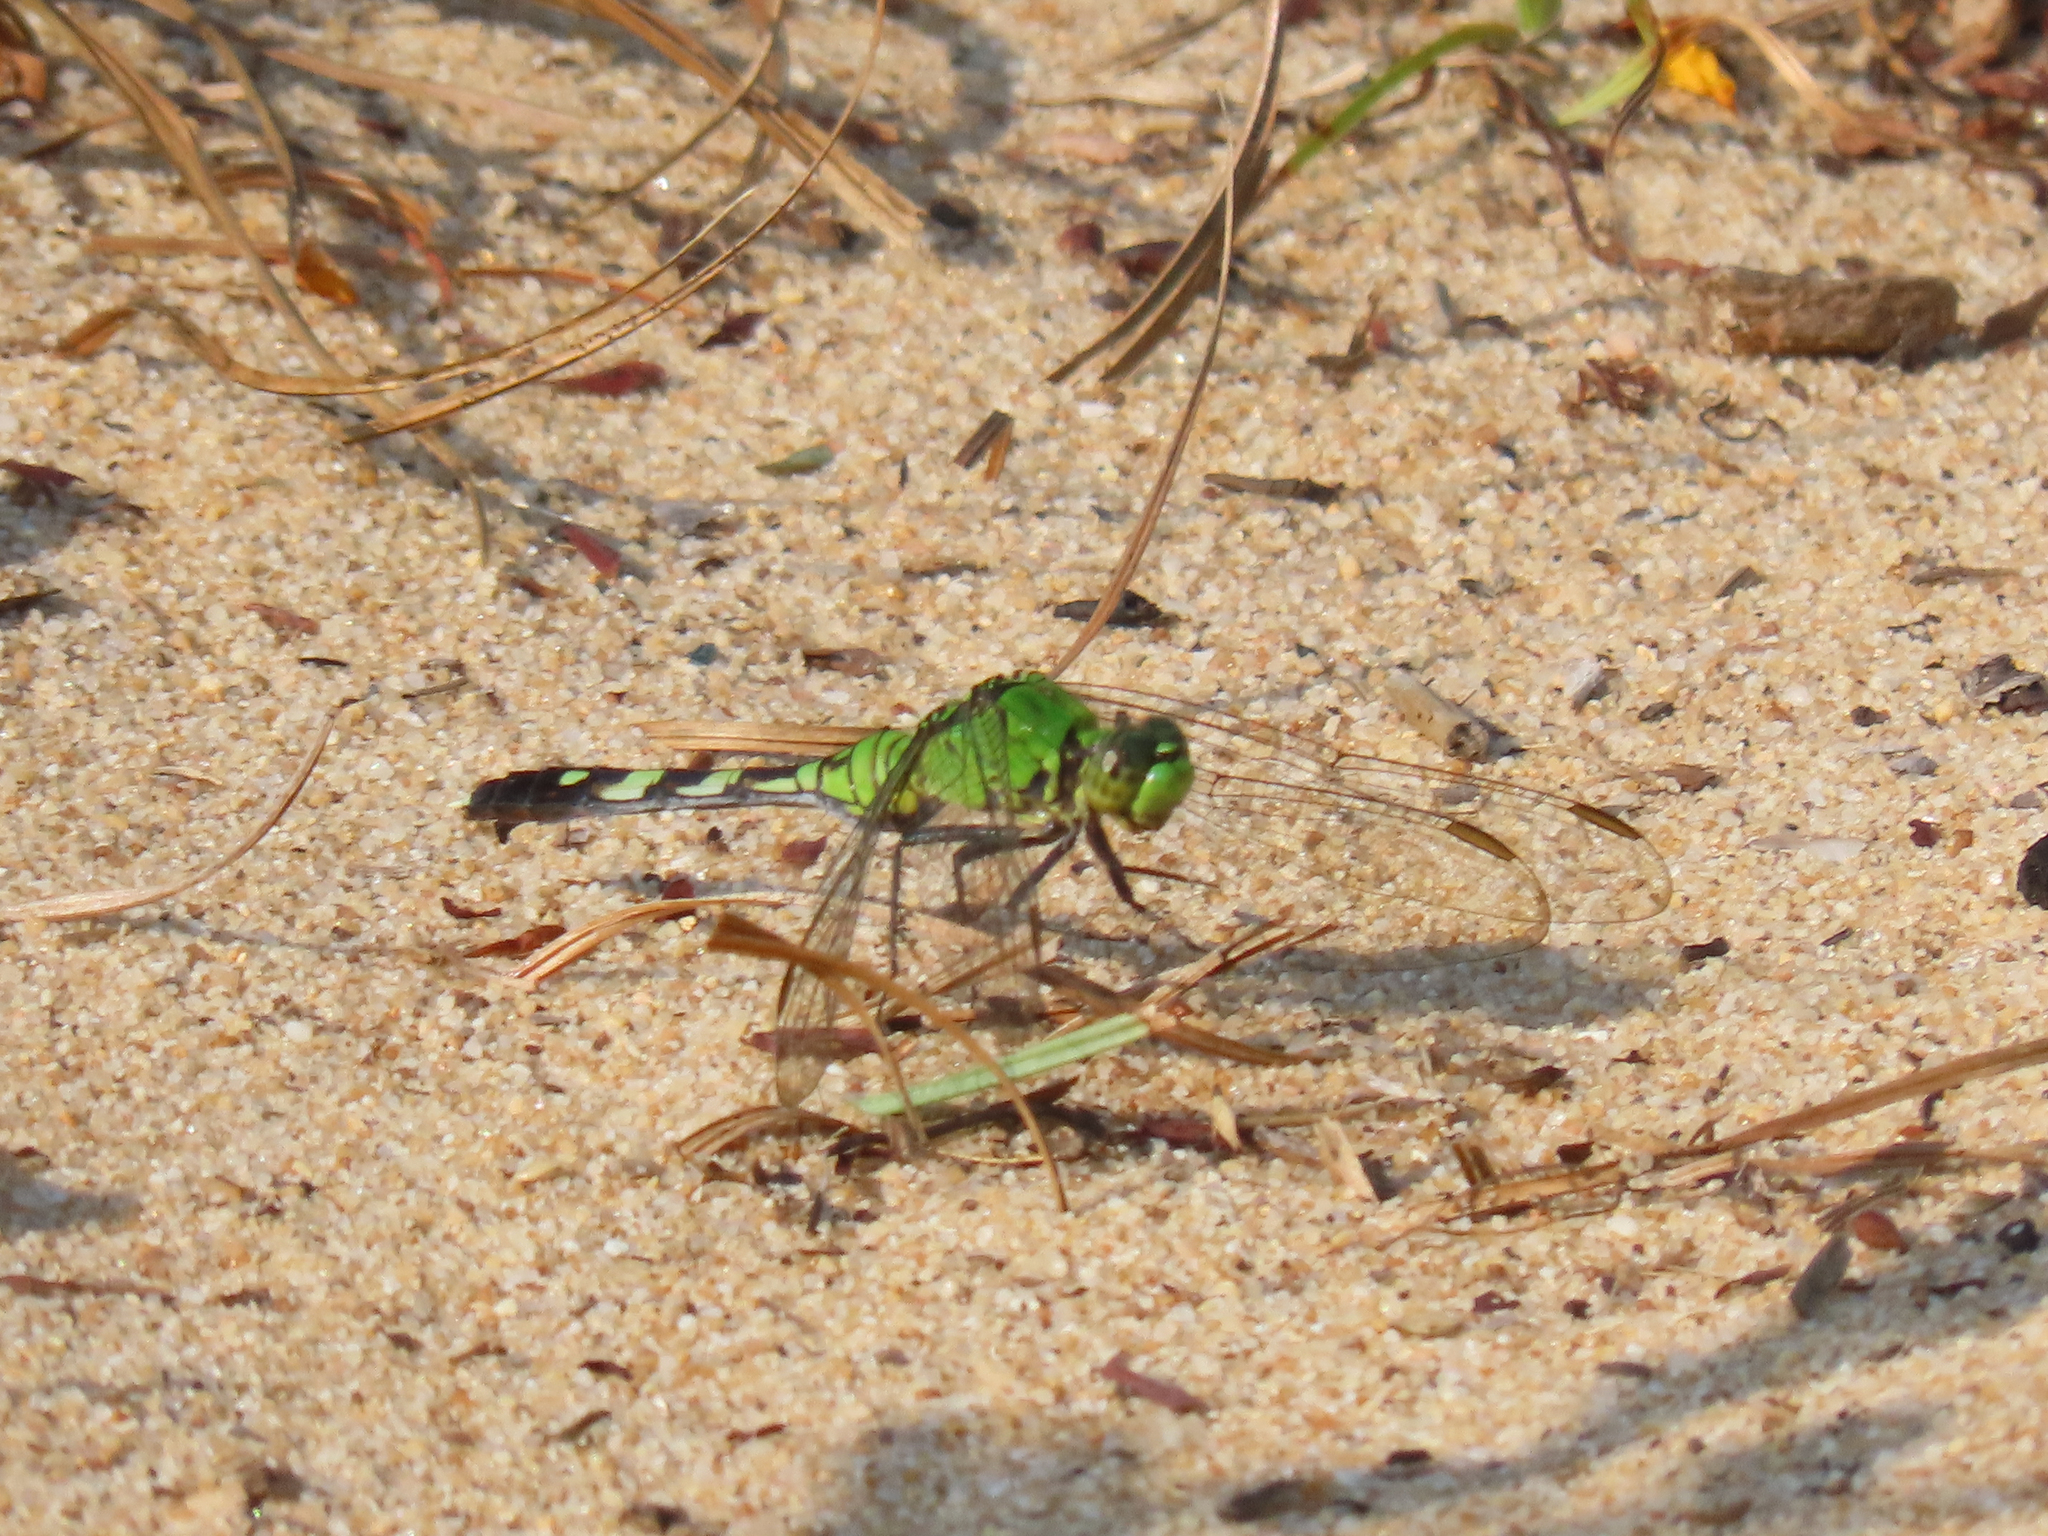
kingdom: Animalia
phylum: Arthropoda
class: Insecta
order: Odonata
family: Libellulidae
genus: Erythemis
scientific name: Erythemis simplicicollis
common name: Eastern pondhawk
